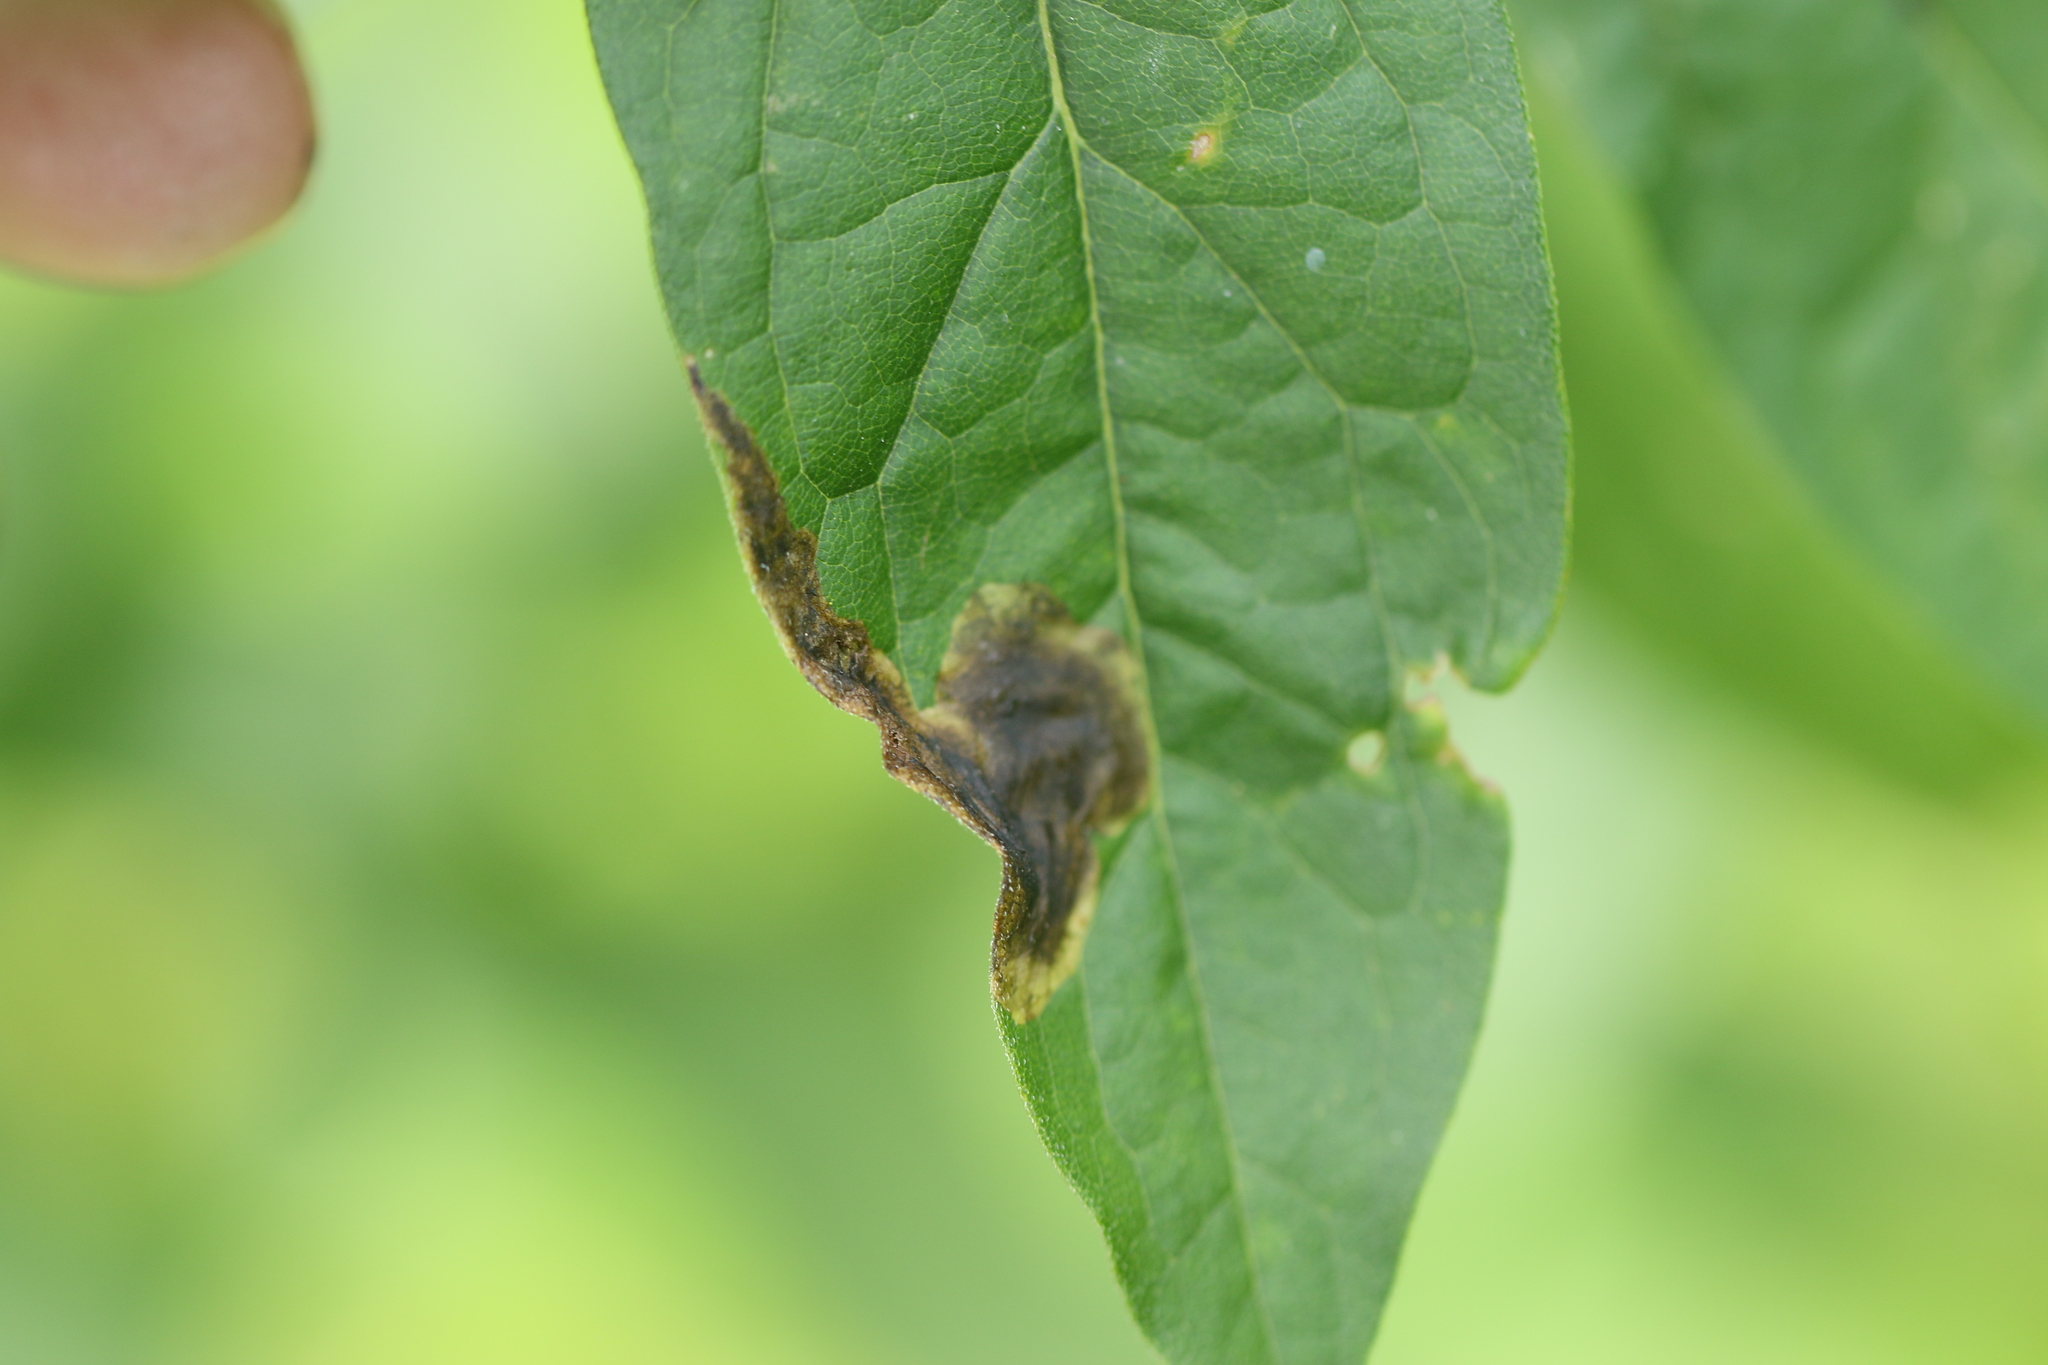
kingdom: Animalia
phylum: Arthropoda
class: Insecta
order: Diptera
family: Agromyzidae
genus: Nemorimyza
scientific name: Nemorimyza posticata
